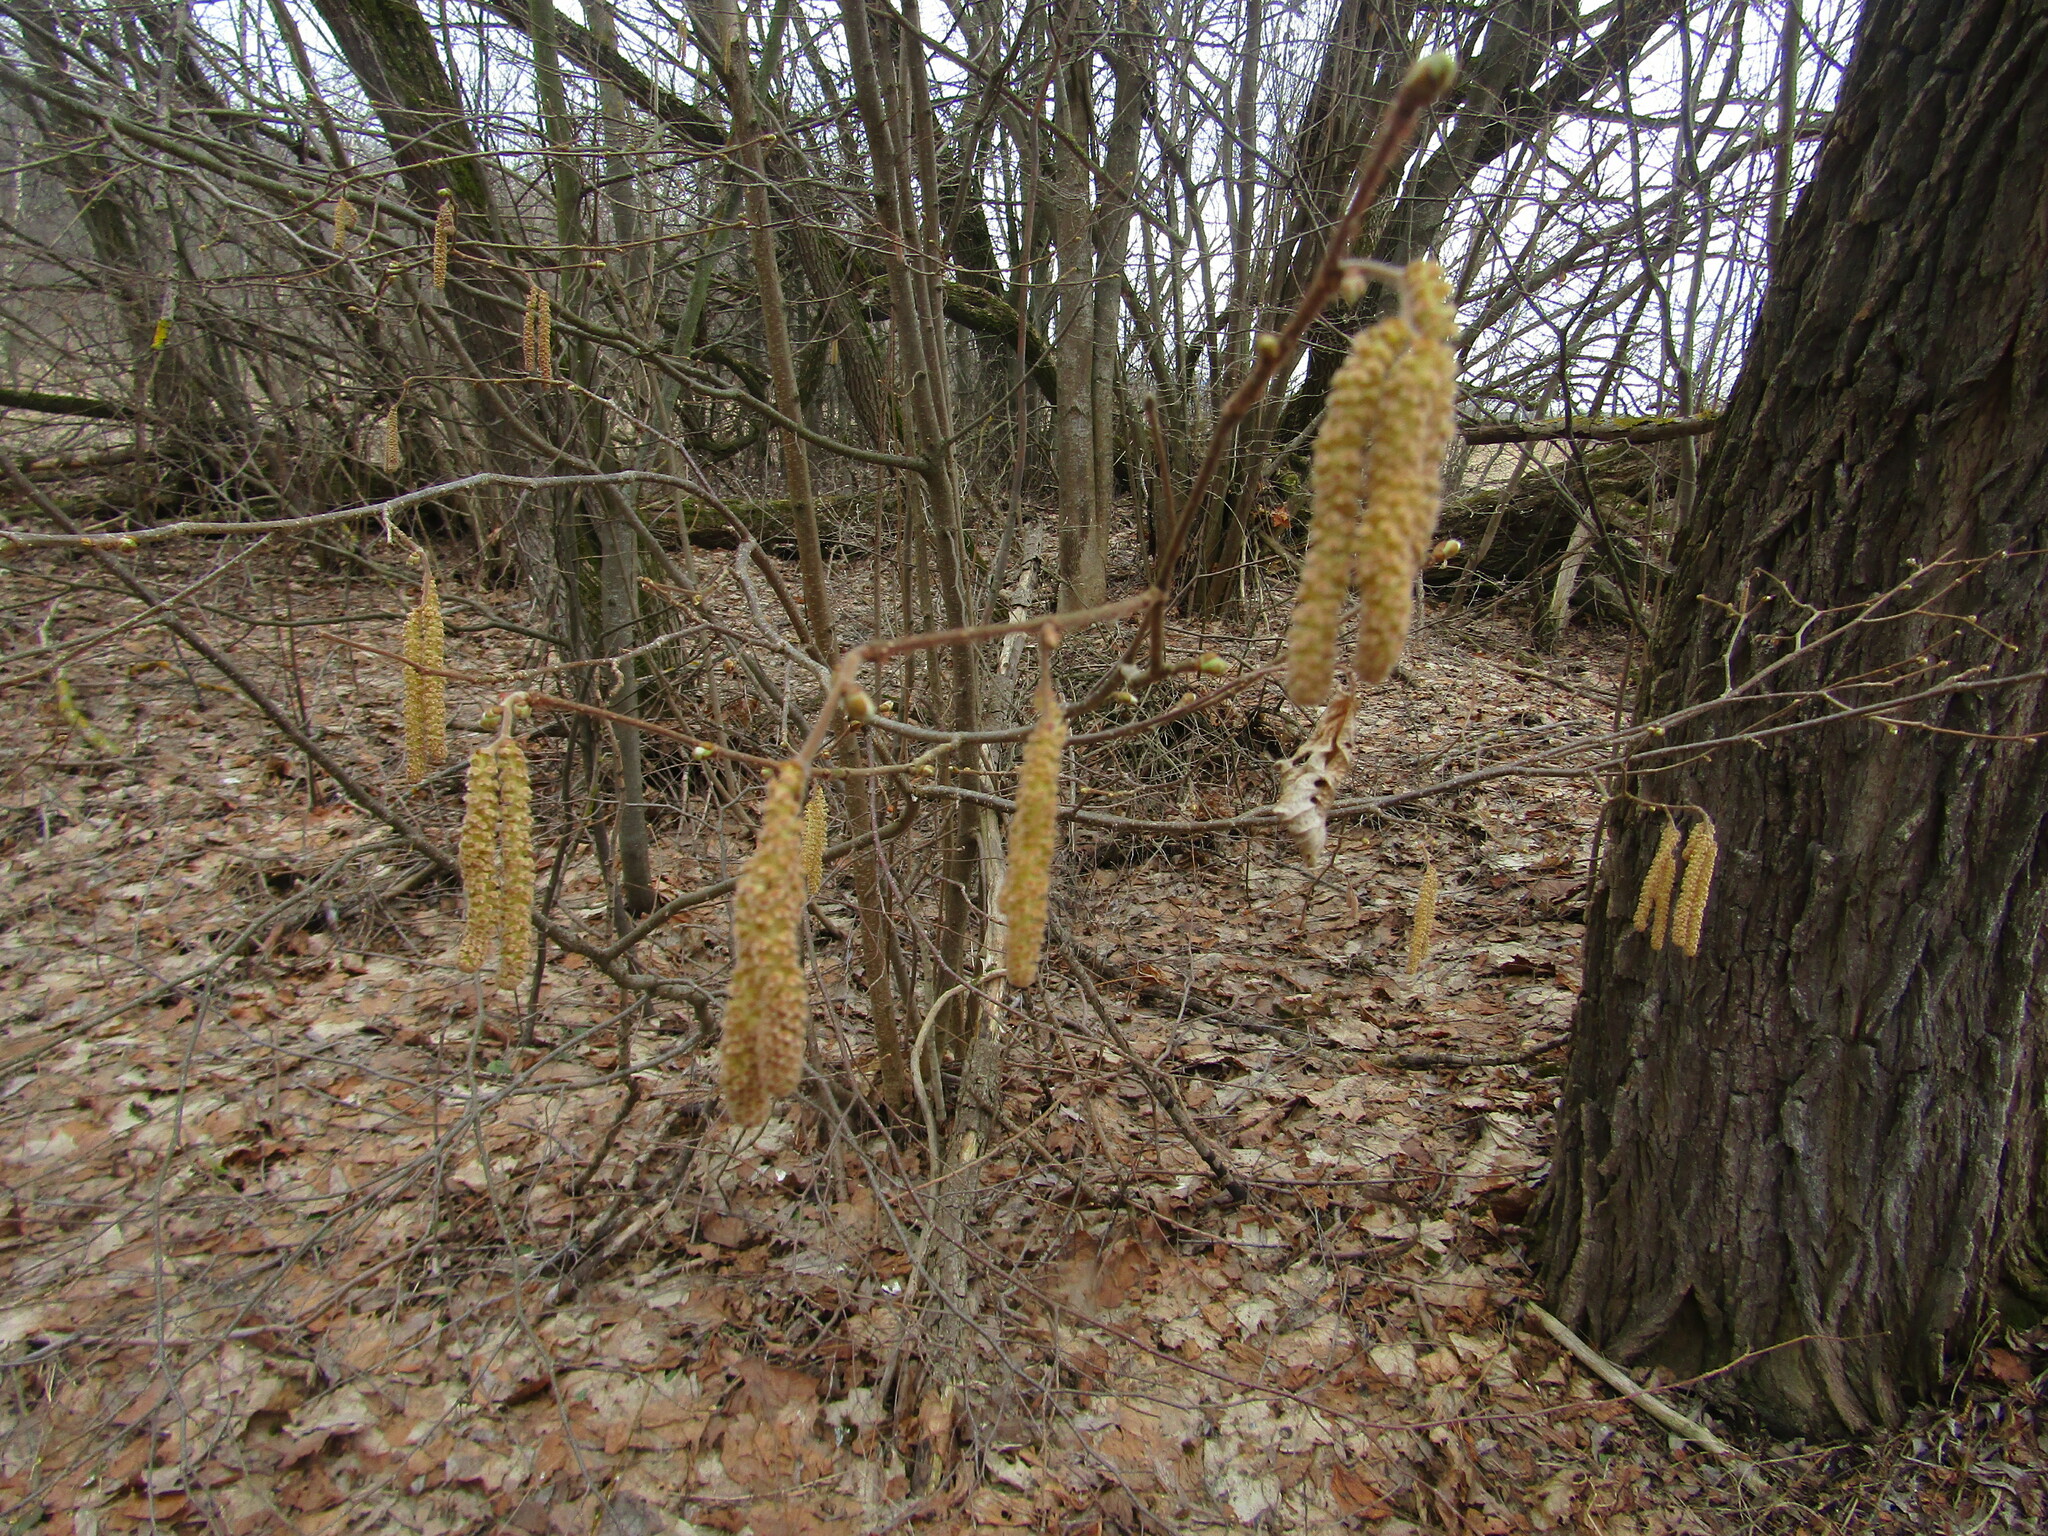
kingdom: Plantae
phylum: Tracheophyta
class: Magnoliopsida
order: Fagales
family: Betulaceae
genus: Corylus
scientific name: Corylus avellana
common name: European hazel
